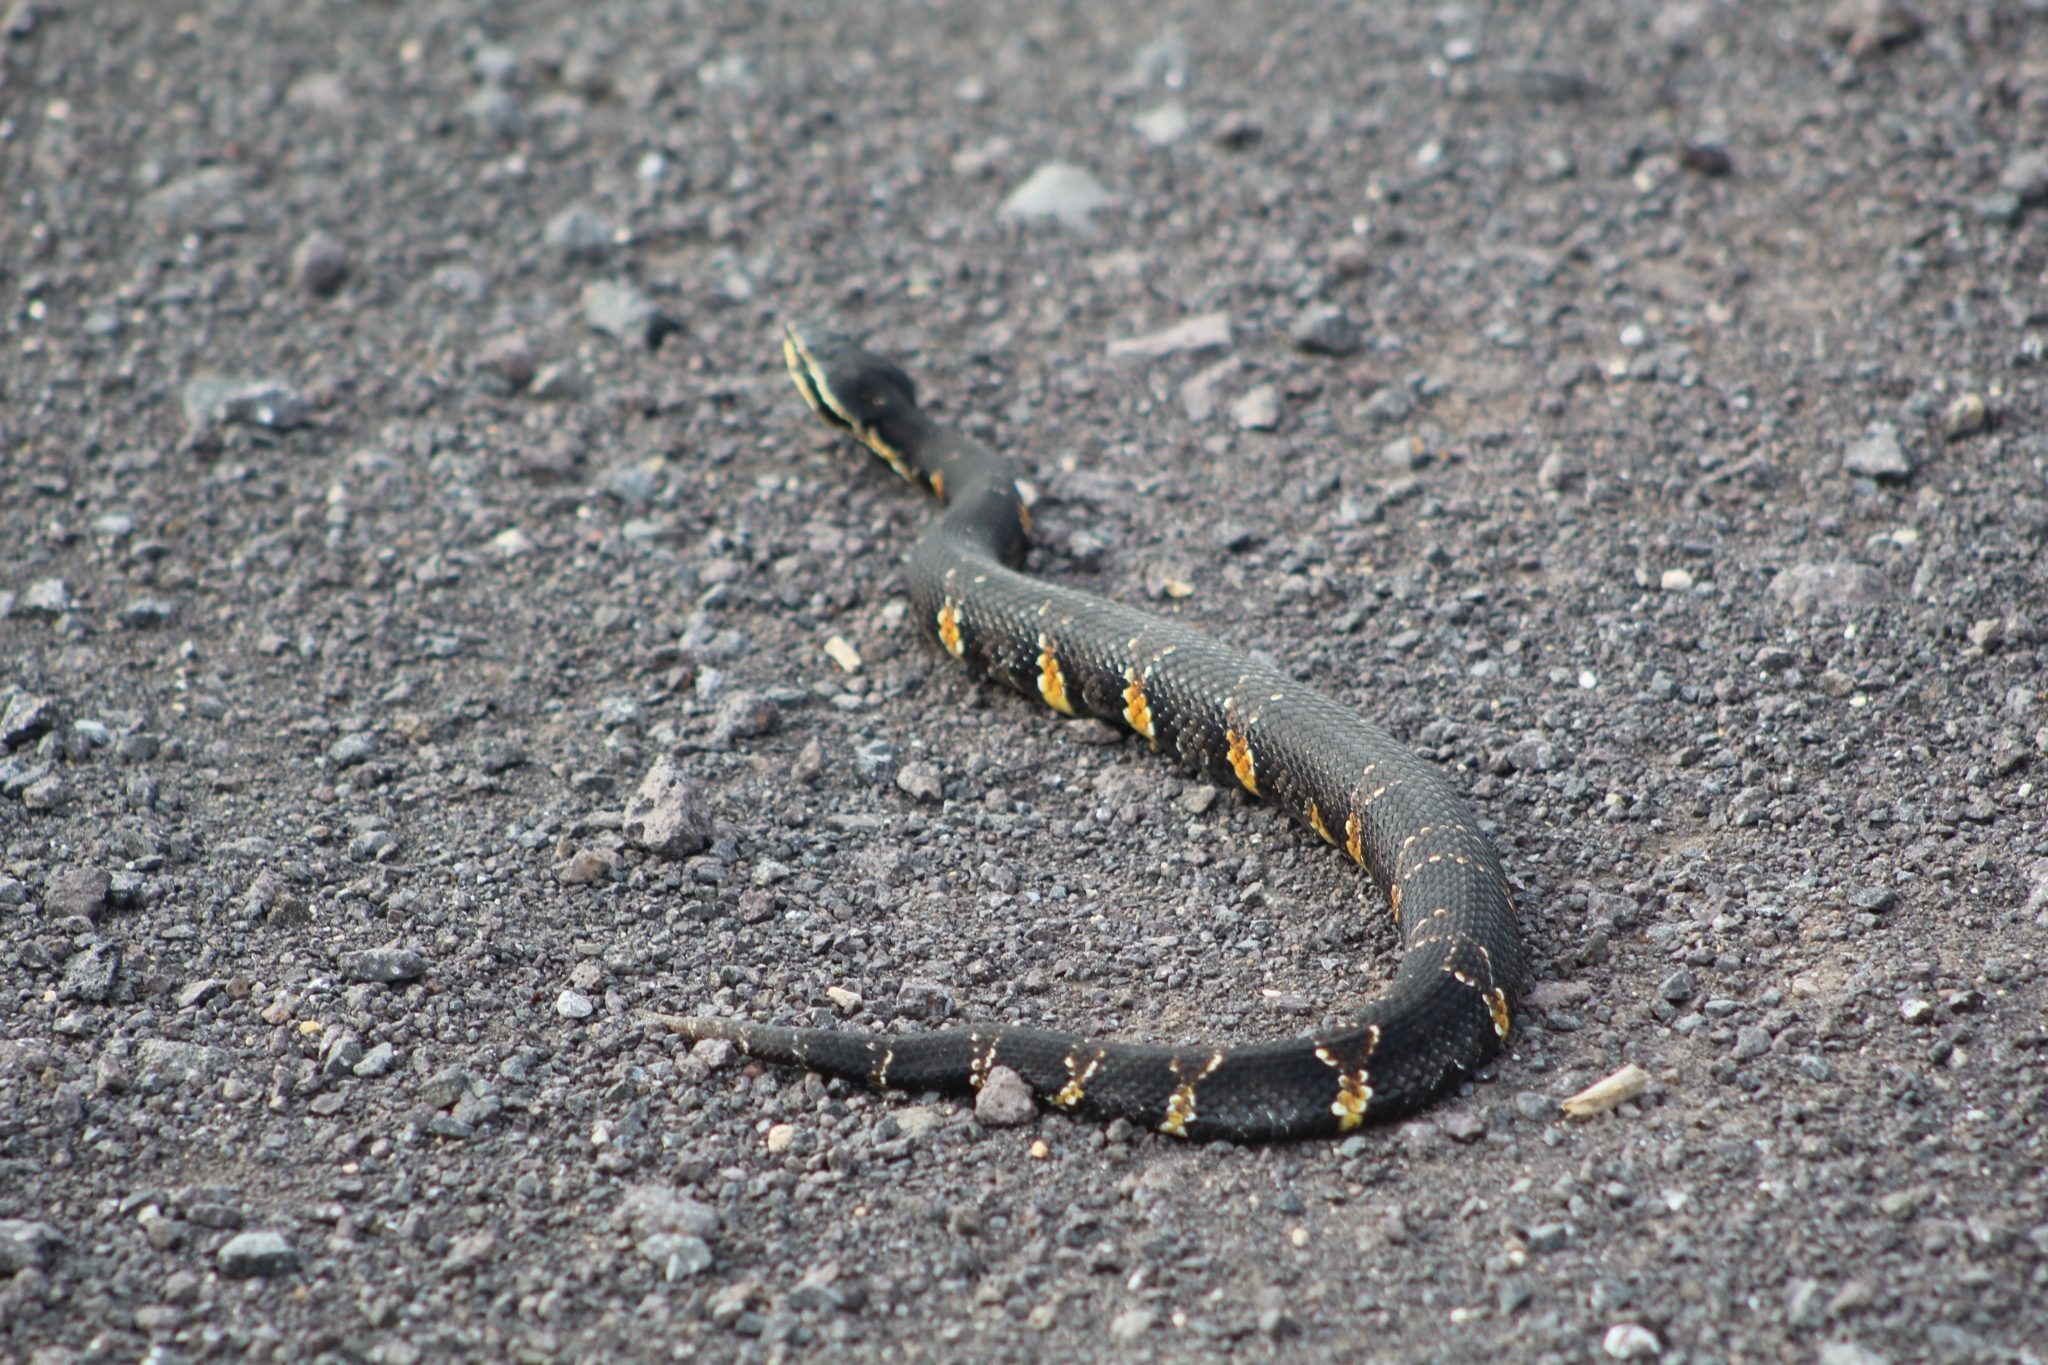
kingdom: Animalia
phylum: Chordata
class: Squamata
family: Viperidae
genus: Agkistrodon
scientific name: Agkistrodon taylori
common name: Mexican moccasin
